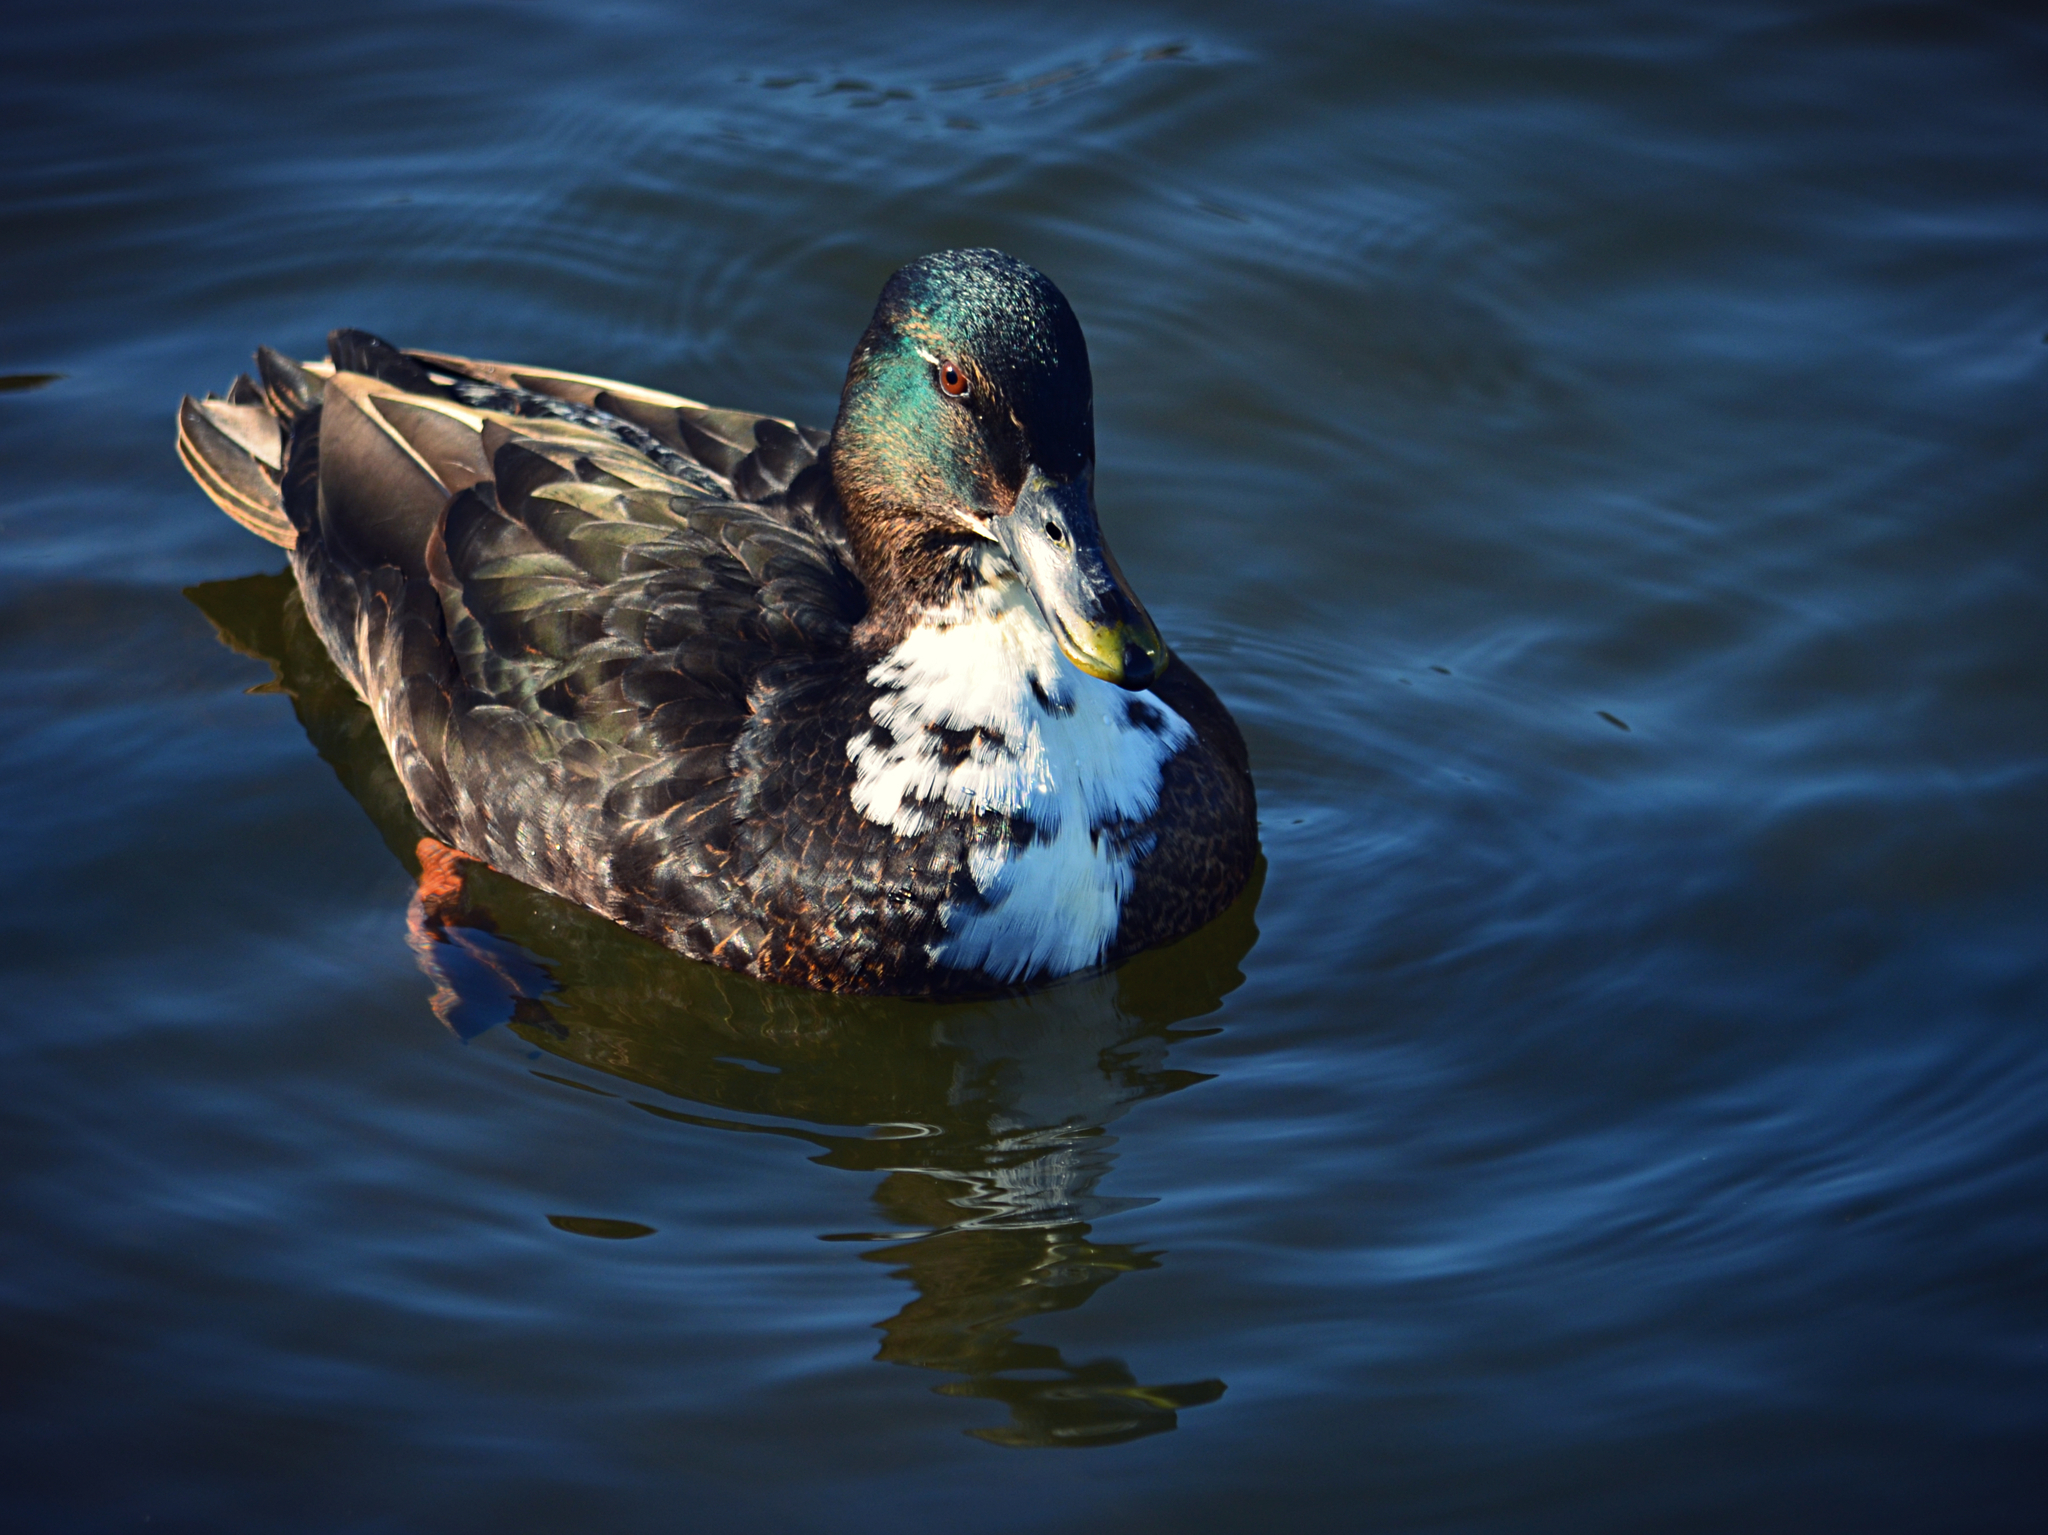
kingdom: Animalia
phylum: Chordata
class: Aves
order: Anseriformes
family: Anatidae
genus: Anas
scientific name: Anas platyrhynchos
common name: Mallard
